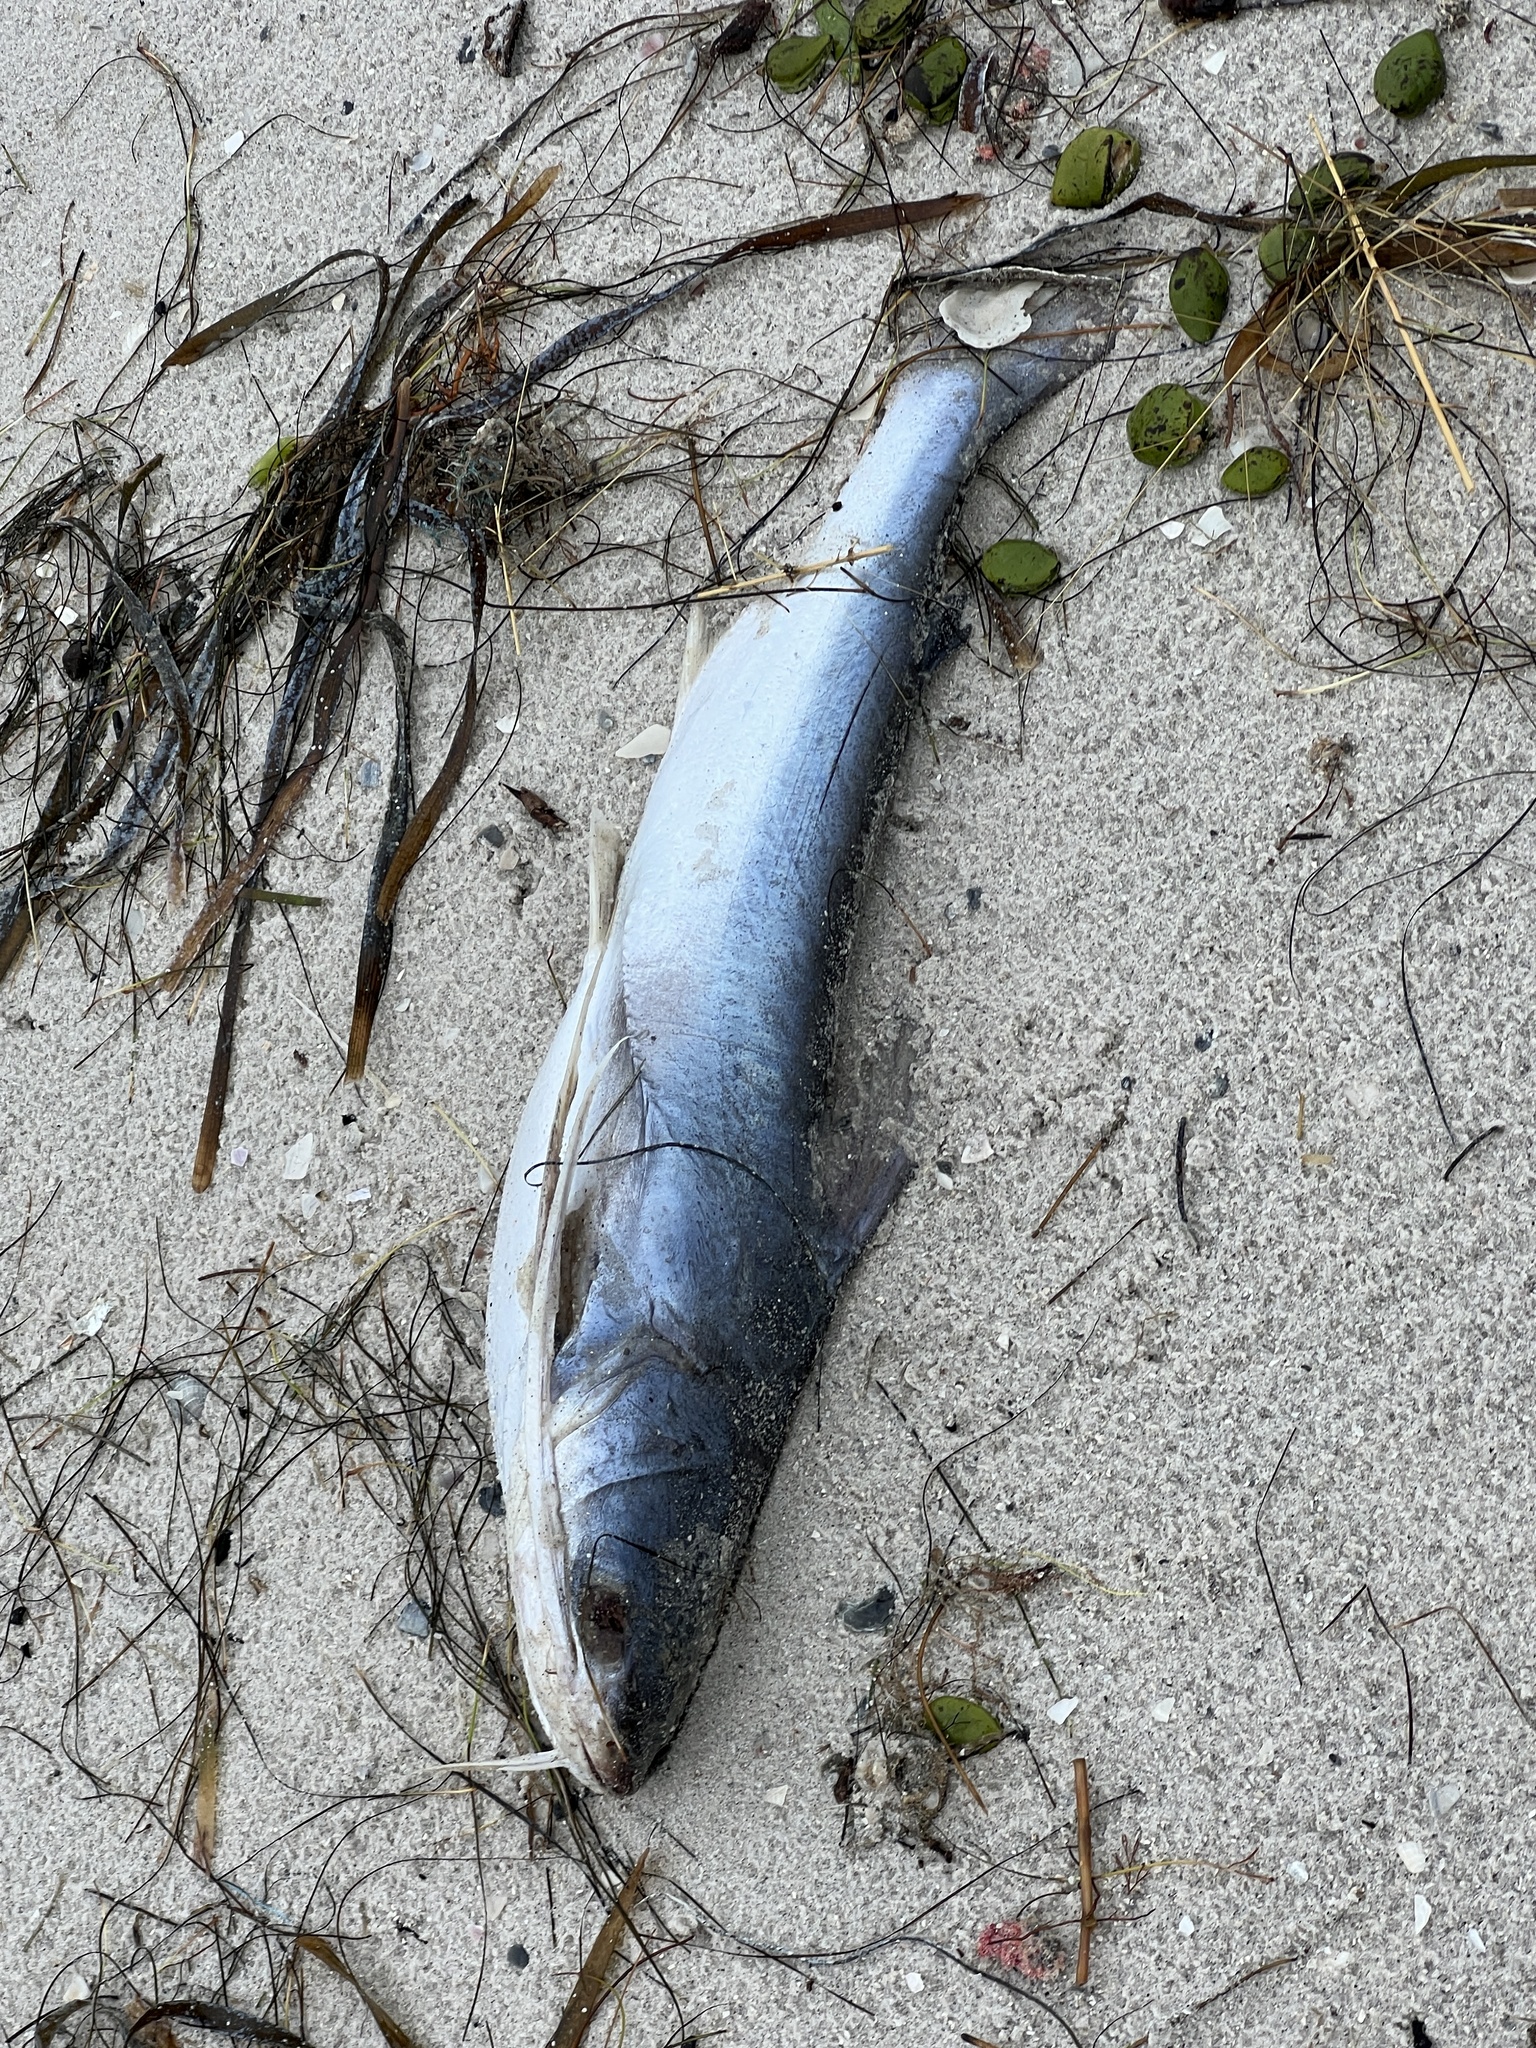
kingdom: Animalia
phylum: Chordata
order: Siluriformes
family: Ariidae
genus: Bagre
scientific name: Bagre marinus
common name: Gafftopsail sea catfish
